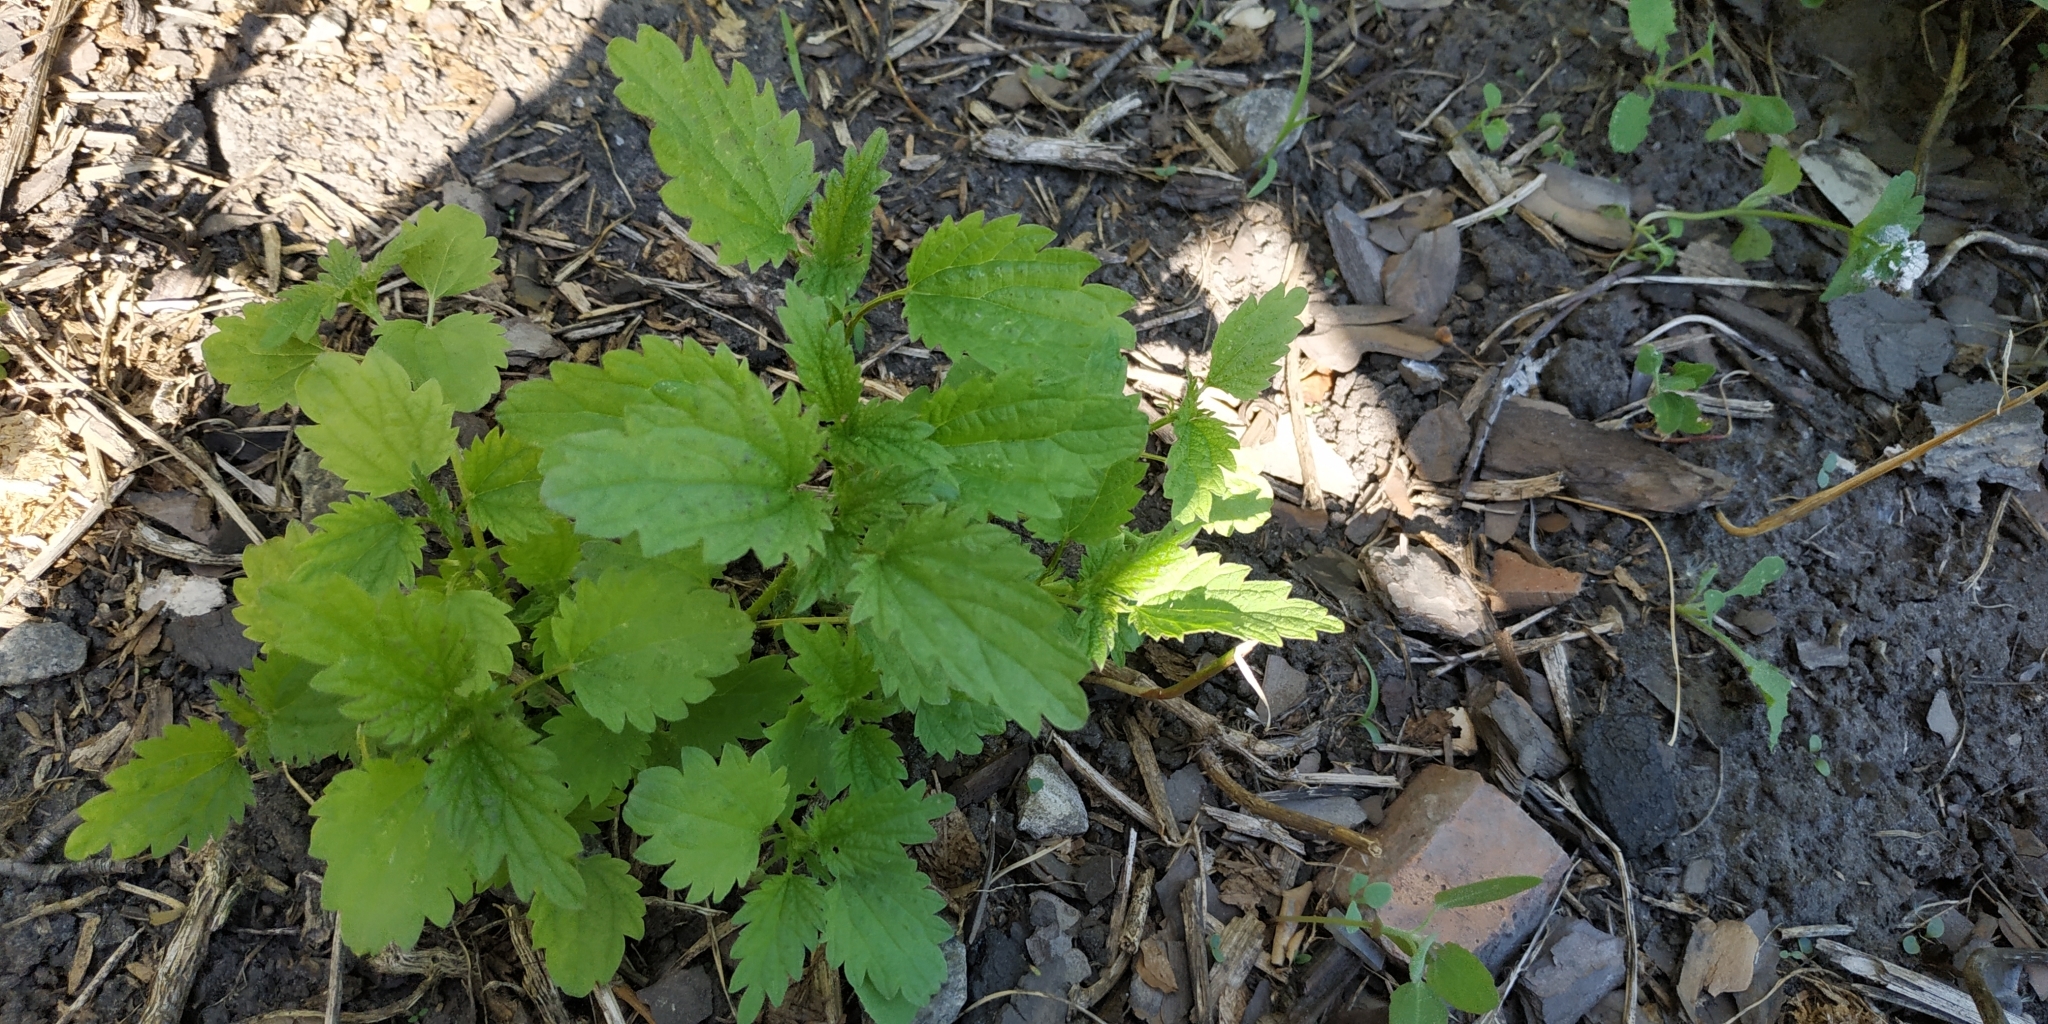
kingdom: Plantae
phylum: Tracheophyta
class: Magnoliopsida
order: Rosales
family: Urticaceae
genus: Urtica
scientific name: Urtica dioica
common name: Common nettle
